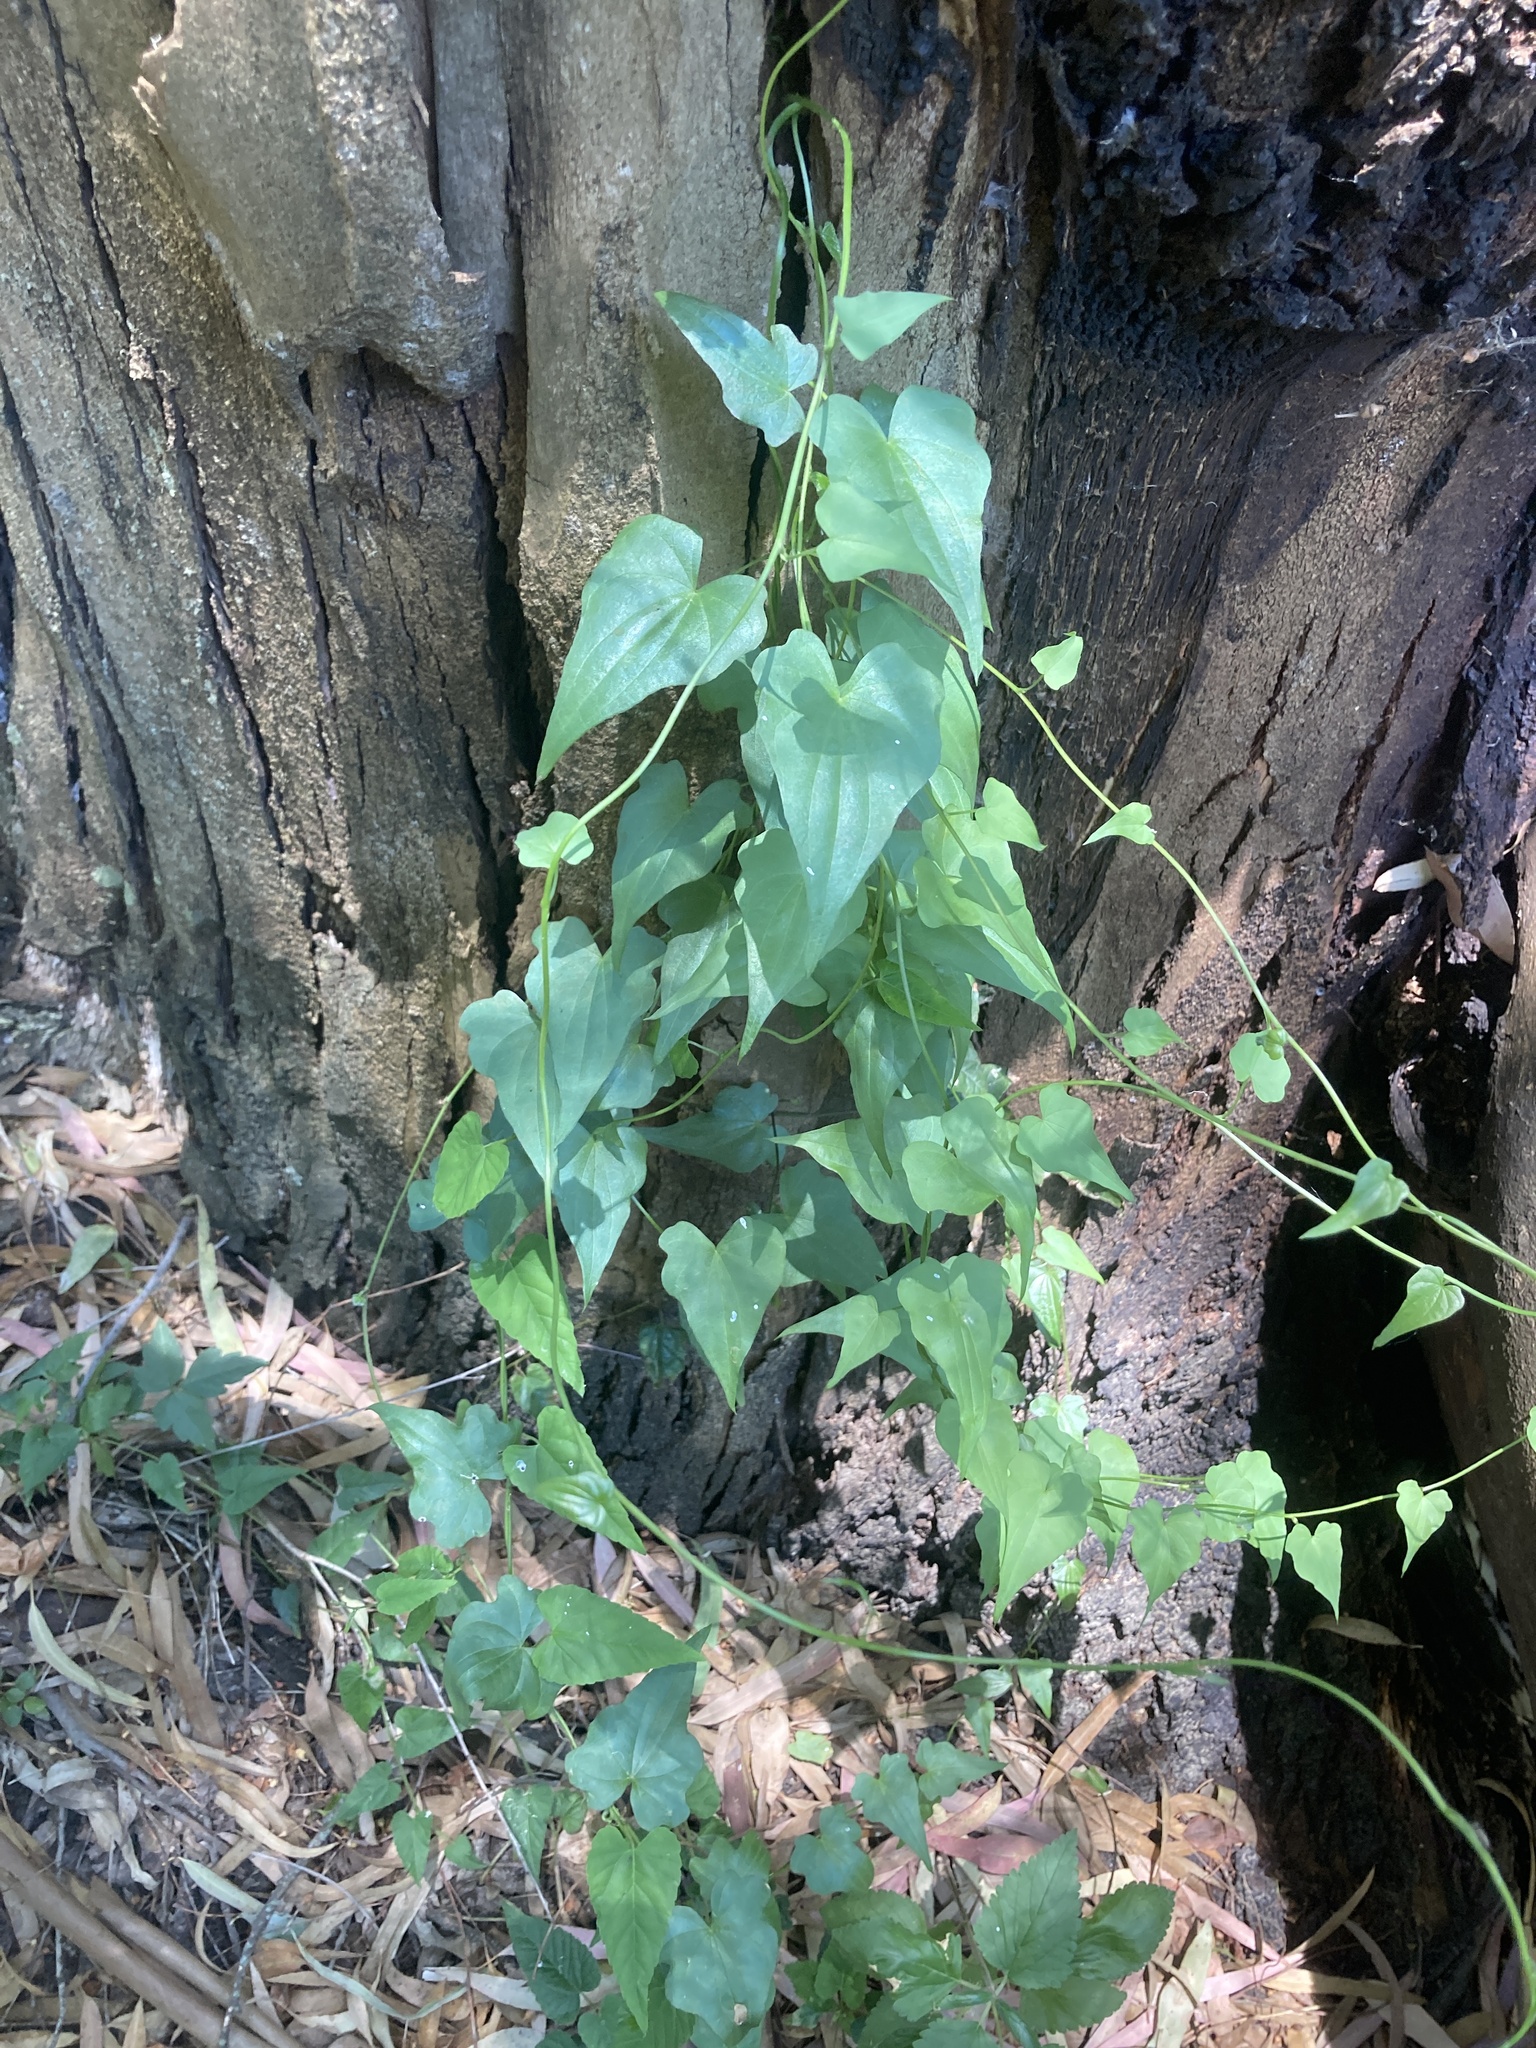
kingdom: Plantae
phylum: Tracheophyta
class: Liliopsida
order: Dioscoreales
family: Dioscoreaceae
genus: Dioscorea
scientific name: Dioscorea sinuata
